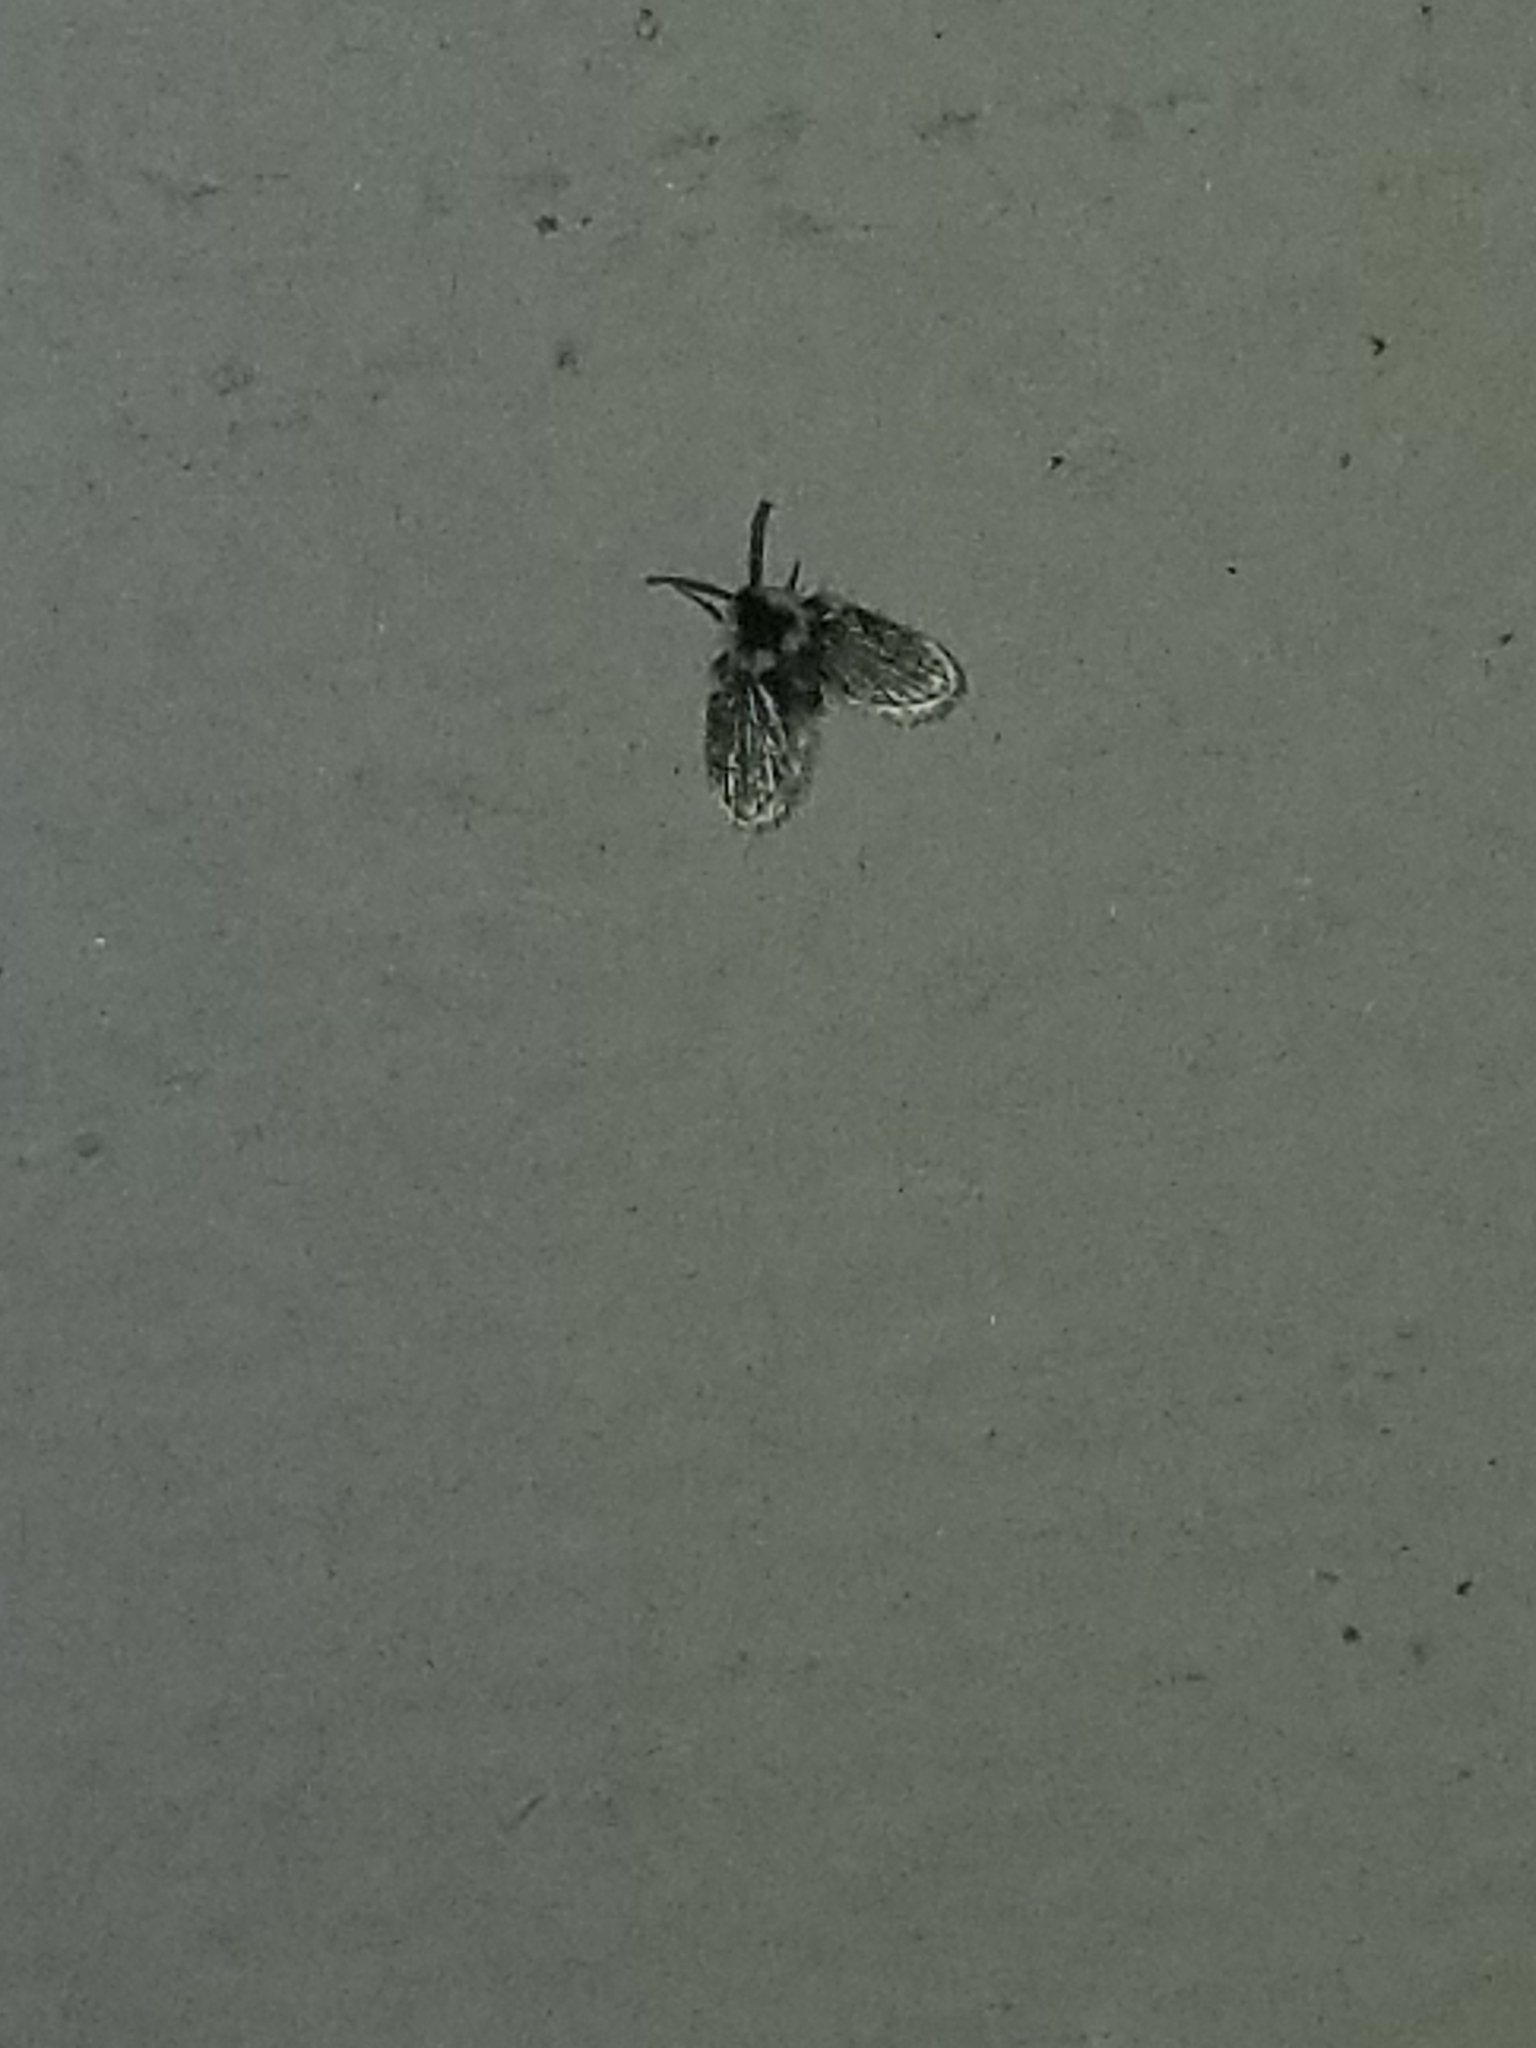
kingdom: Animalia
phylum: Arthropoda
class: Insecta
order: Diptera
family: Psychodidae
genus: Lepiseodina
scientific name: Lepiseodina
